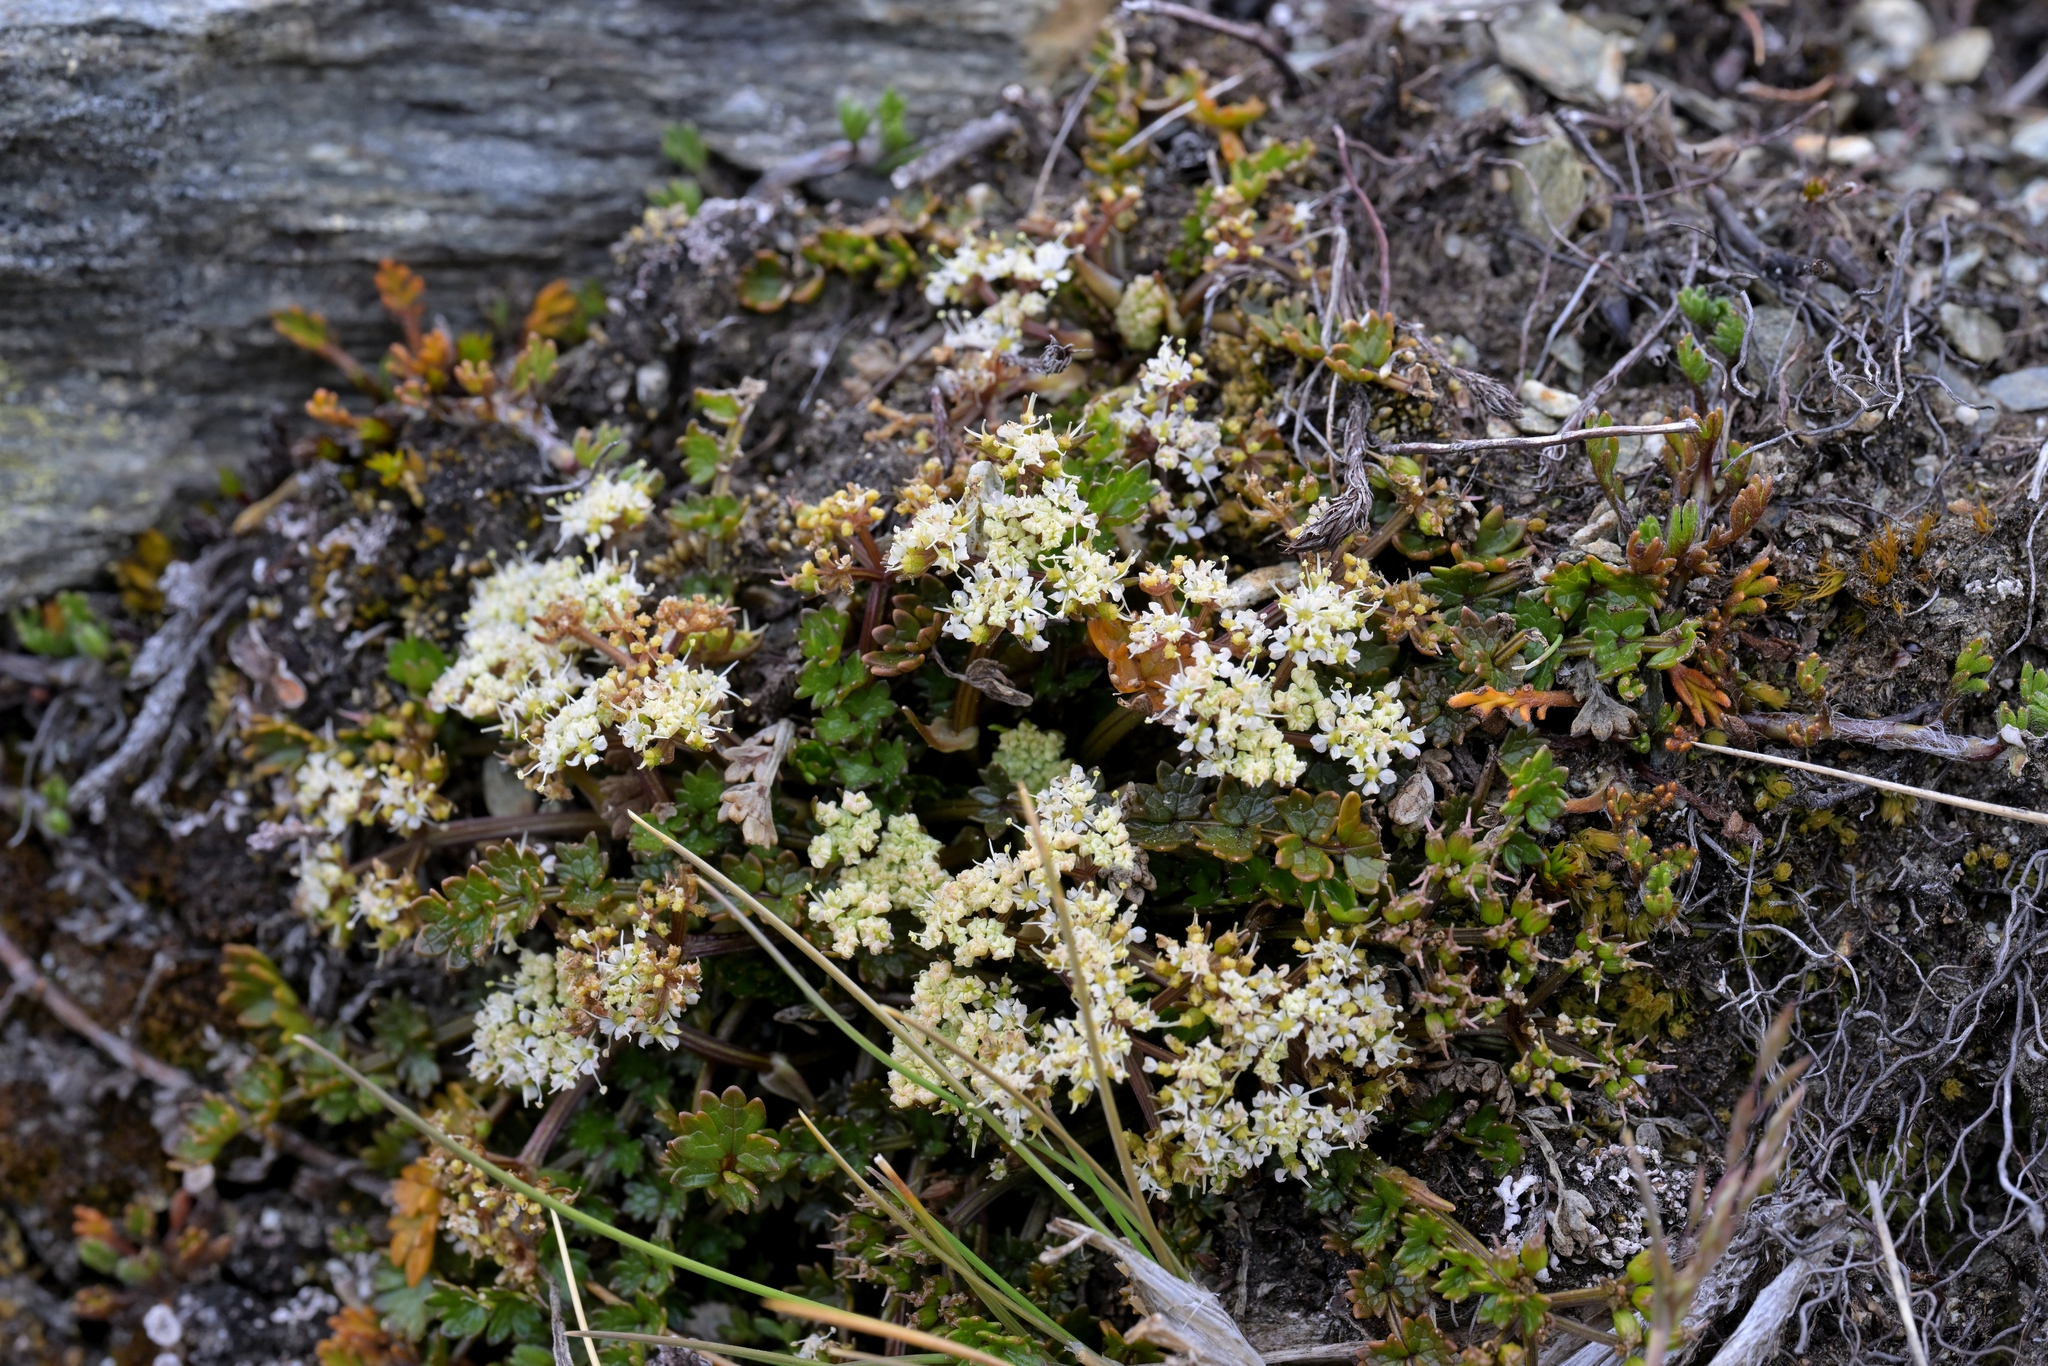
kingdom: Plantae
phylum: Tracheophyta
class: Magnoliopsida
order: Apiales
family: Apiaceae
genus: Gingidia
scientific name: Gingidia decipiens
